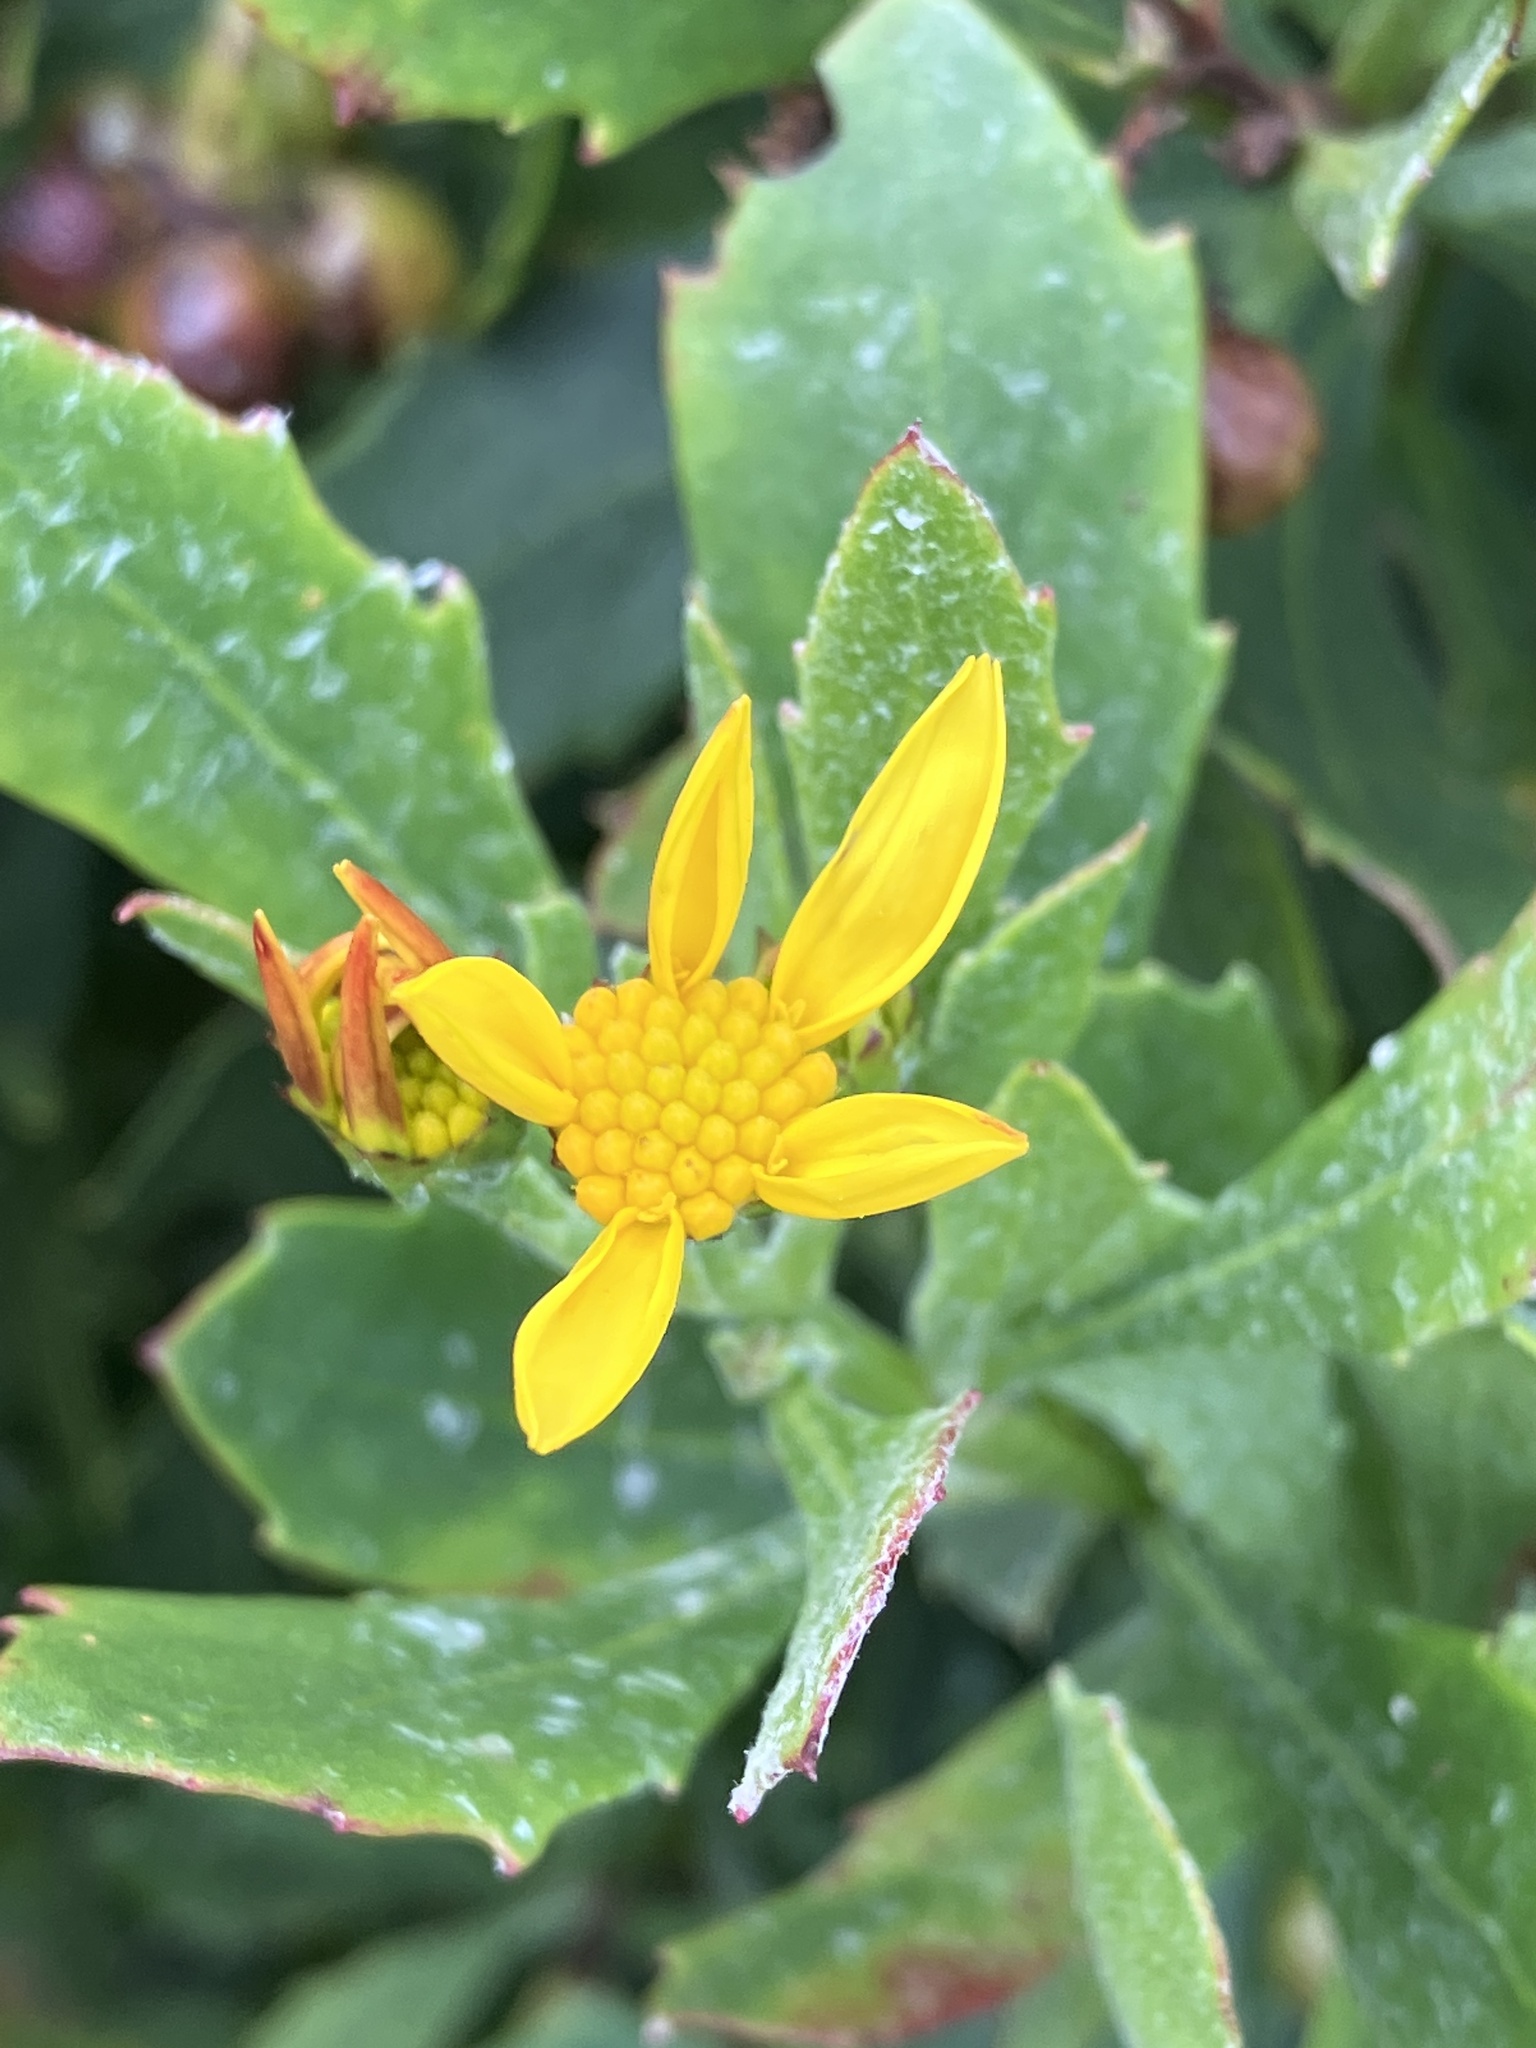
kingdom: Plantae
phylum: Tracheophyta
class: Magnoliopsida
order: Asterales
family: Asteraceae
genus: Osteospermum
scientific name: Osteospermum moniliferum
